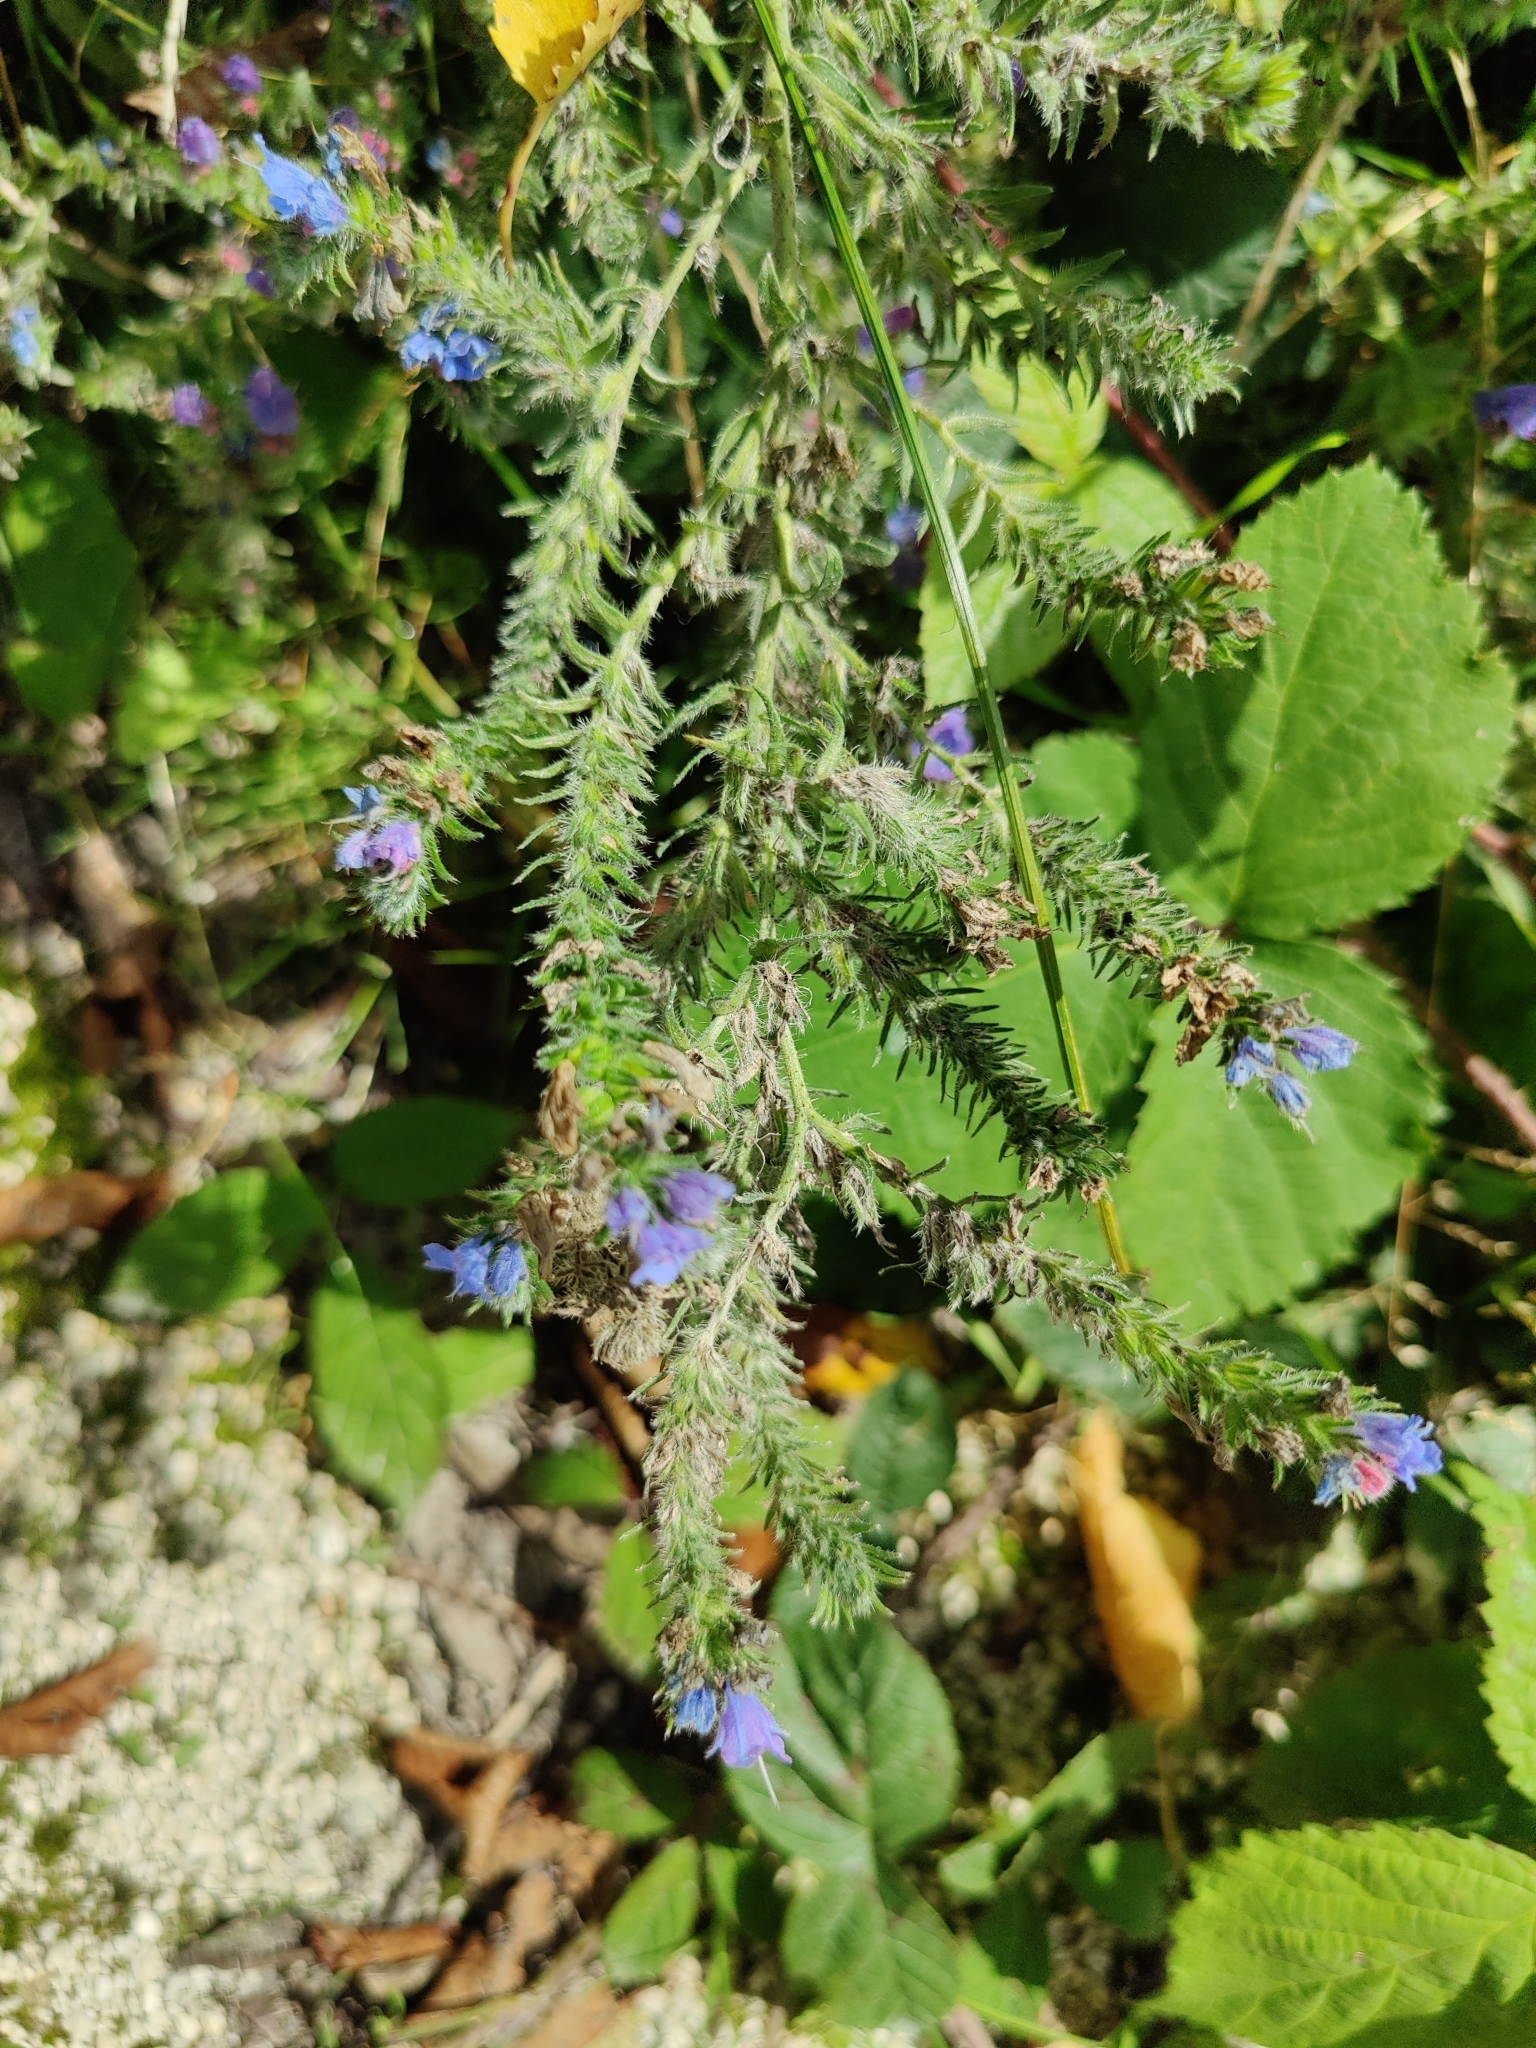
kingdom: Plantae
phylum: Tracheophyta
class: Magnoliopsida
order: Boraginales
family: Boraginaceae
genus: Echium
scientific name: Echium vulgare
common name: Common viper's bugloss
